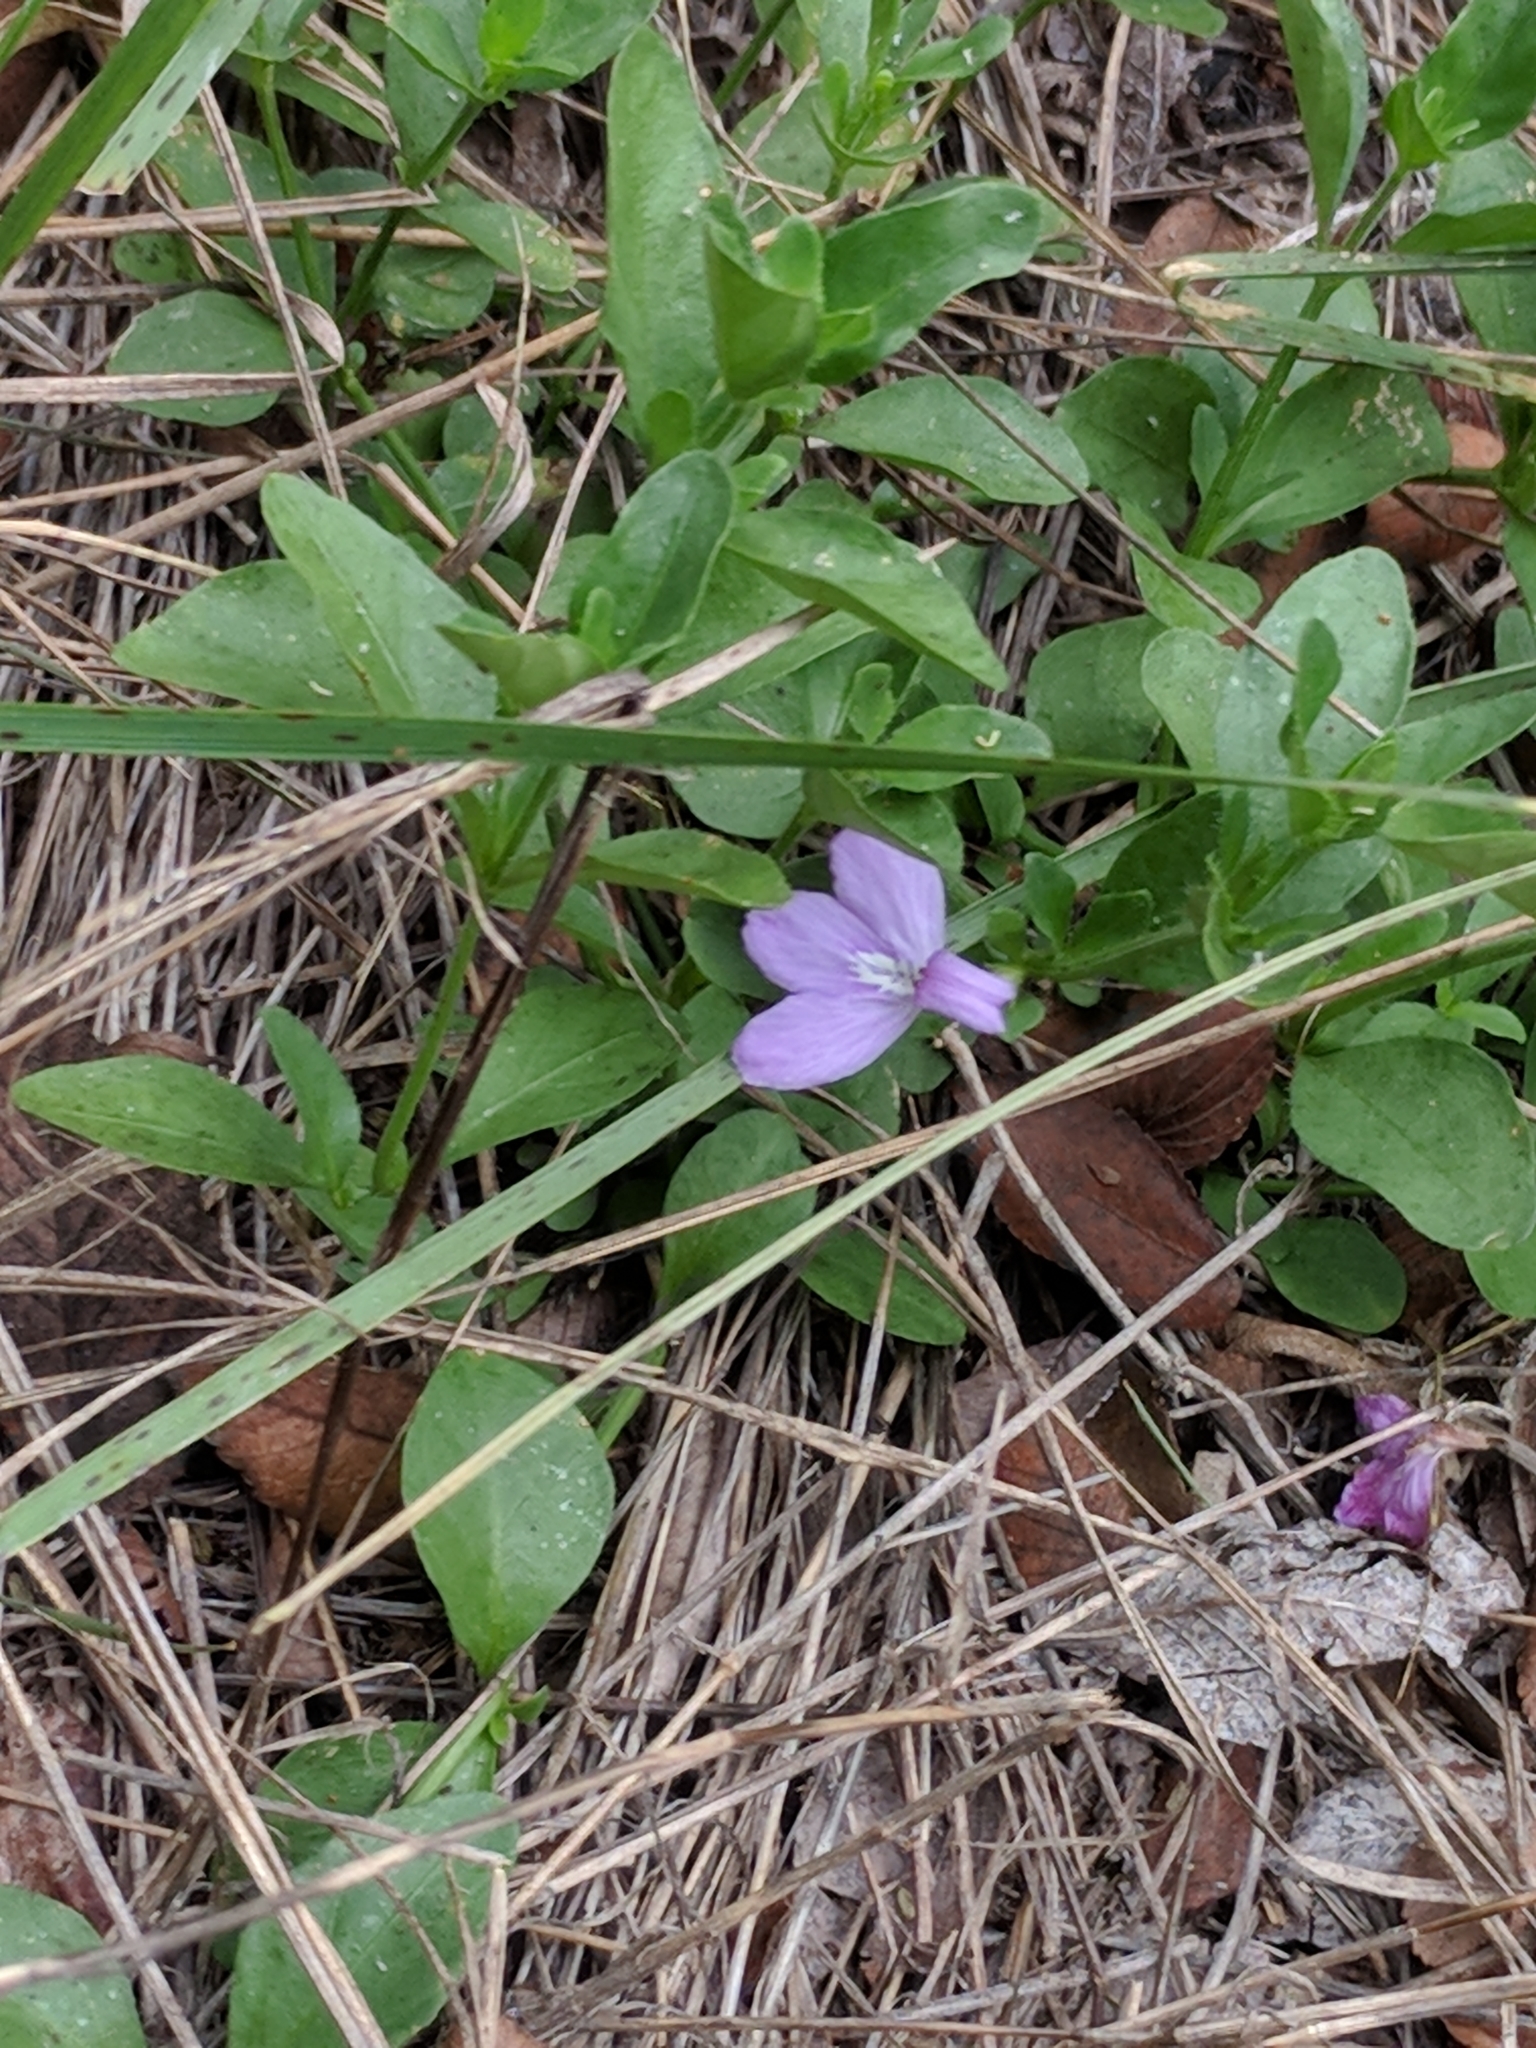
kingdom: Plantae
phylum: Tracheophyta
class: Magnoliopsida
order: Lamiales
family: Acanthaceae
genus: Justicia
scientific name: Justicia pilosella
